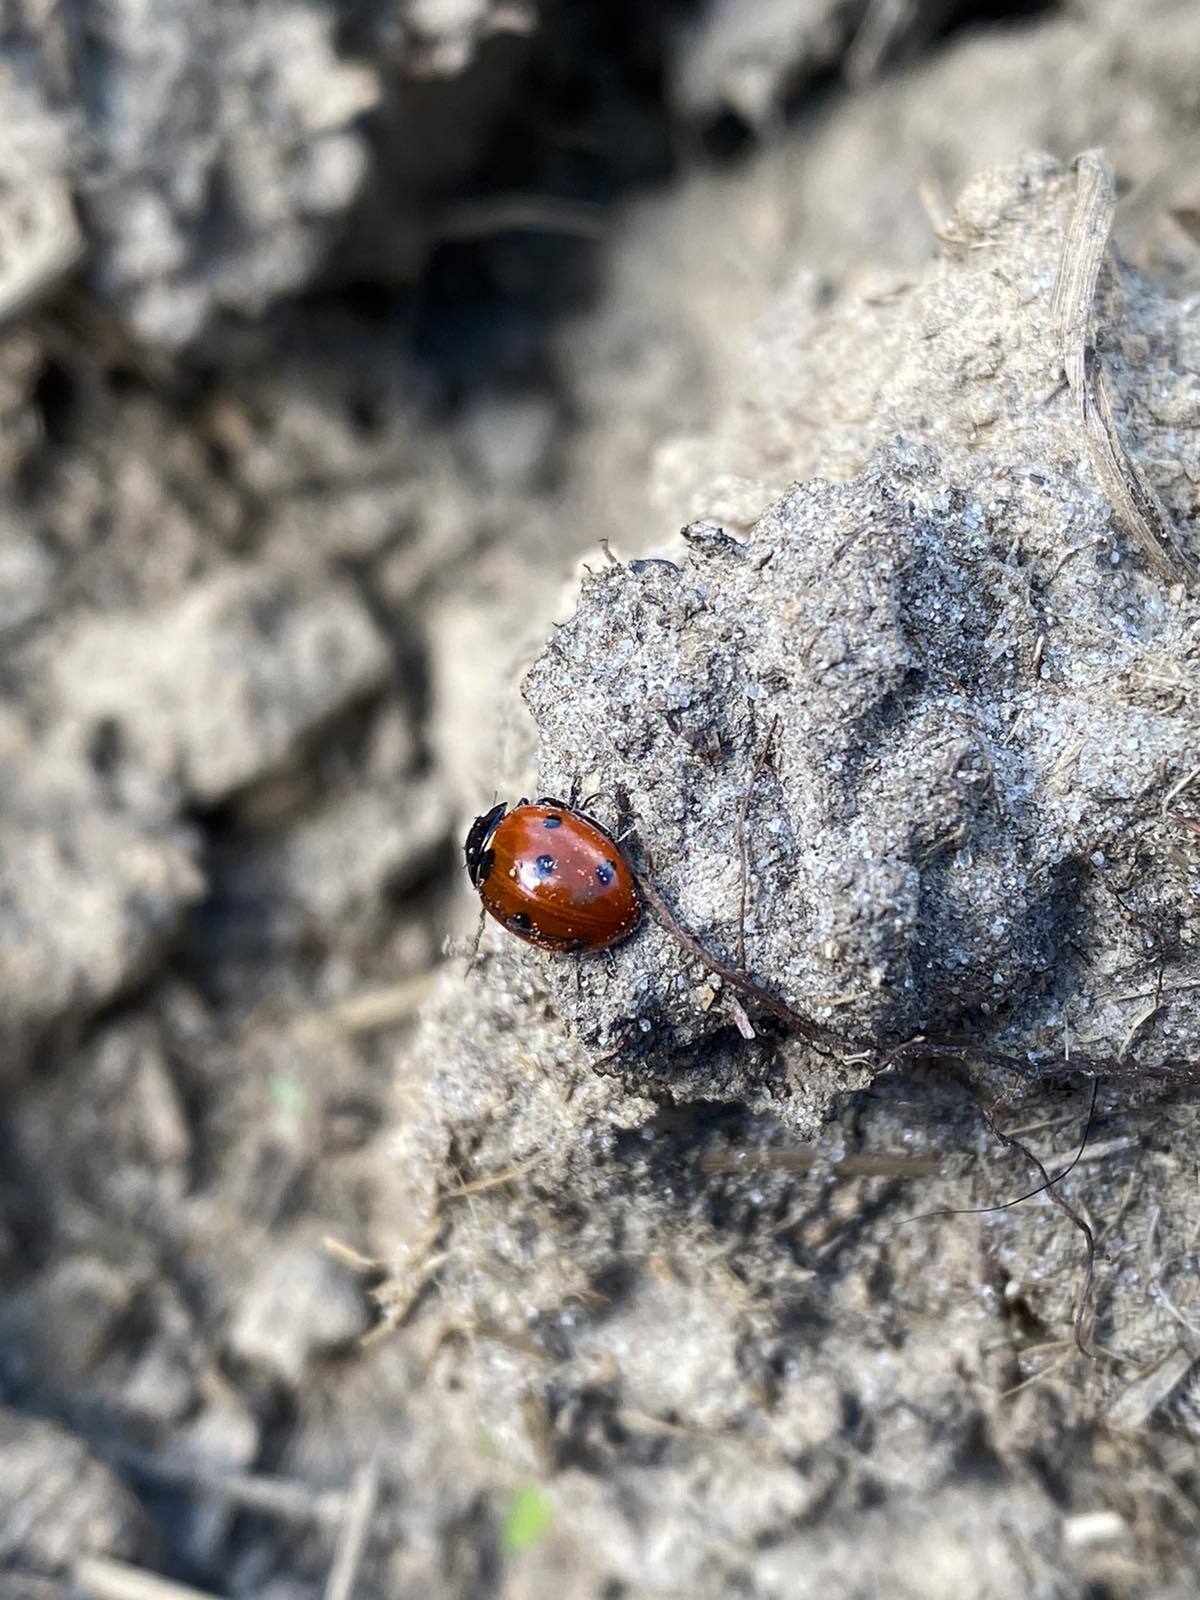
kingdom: Animalia
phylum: Arthropoda
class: Insecta
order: Coleoptera
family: Coccinellidae
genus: Coccinella
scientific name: Coccinella septempunctata
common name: Sevenspotted lady beetle
